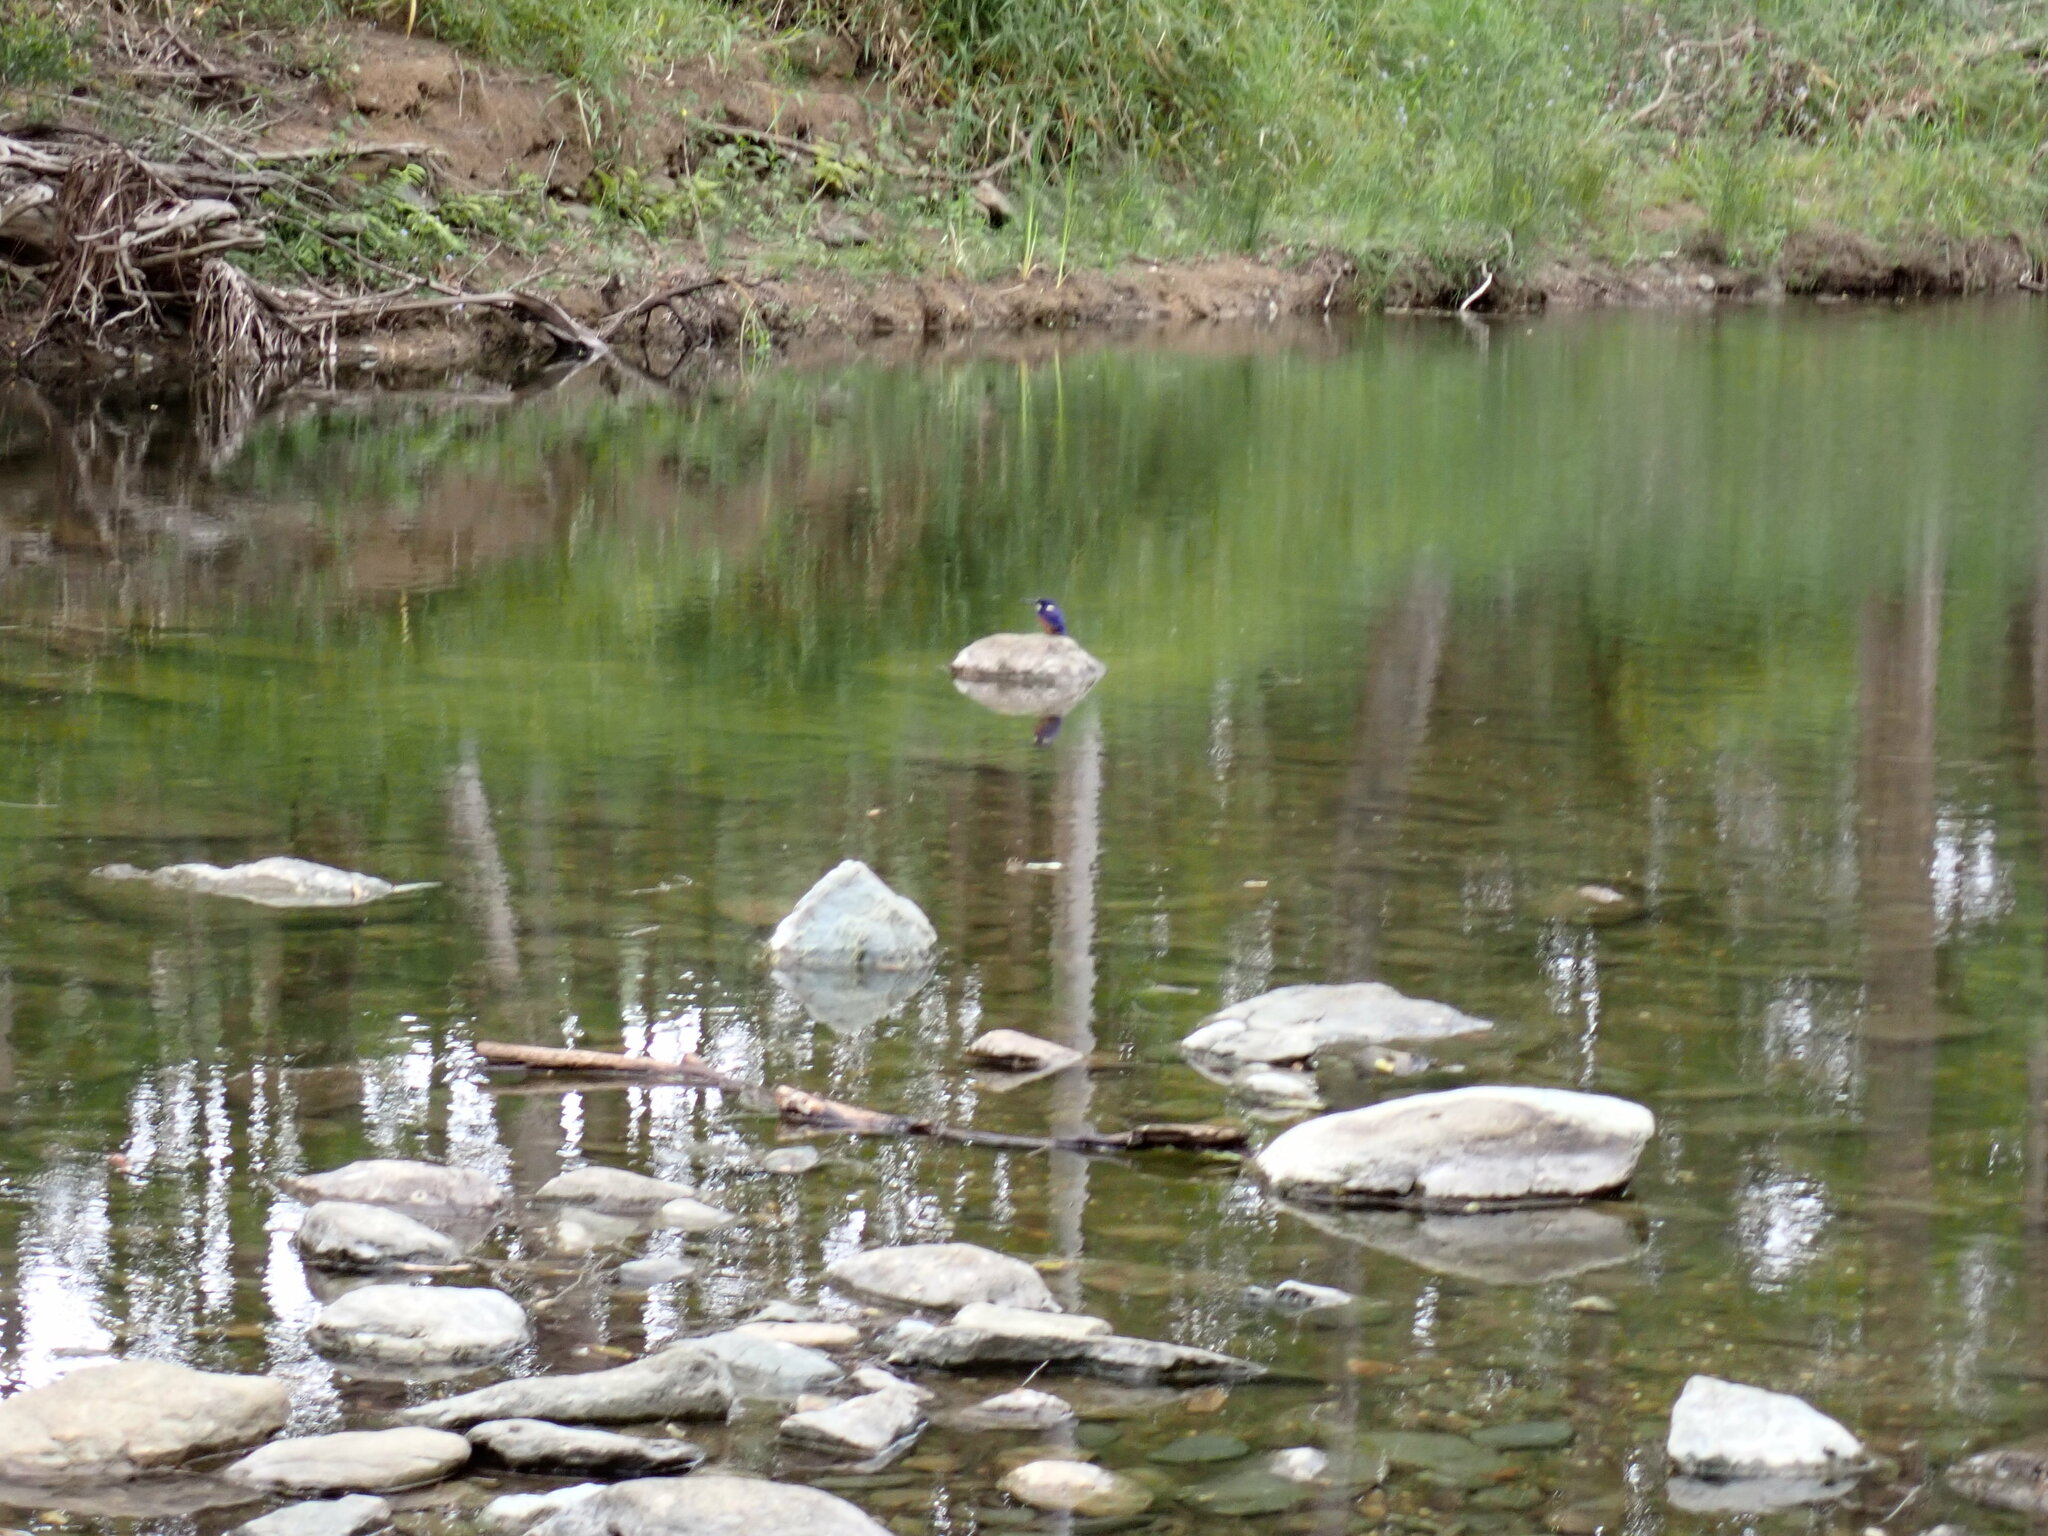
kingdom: Animalia
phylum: Chordata
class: Aves
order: Coraciiformes
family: Alcedinidae
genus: Ceyx
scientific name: Ceyx azureus
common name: Azure kingfisher
